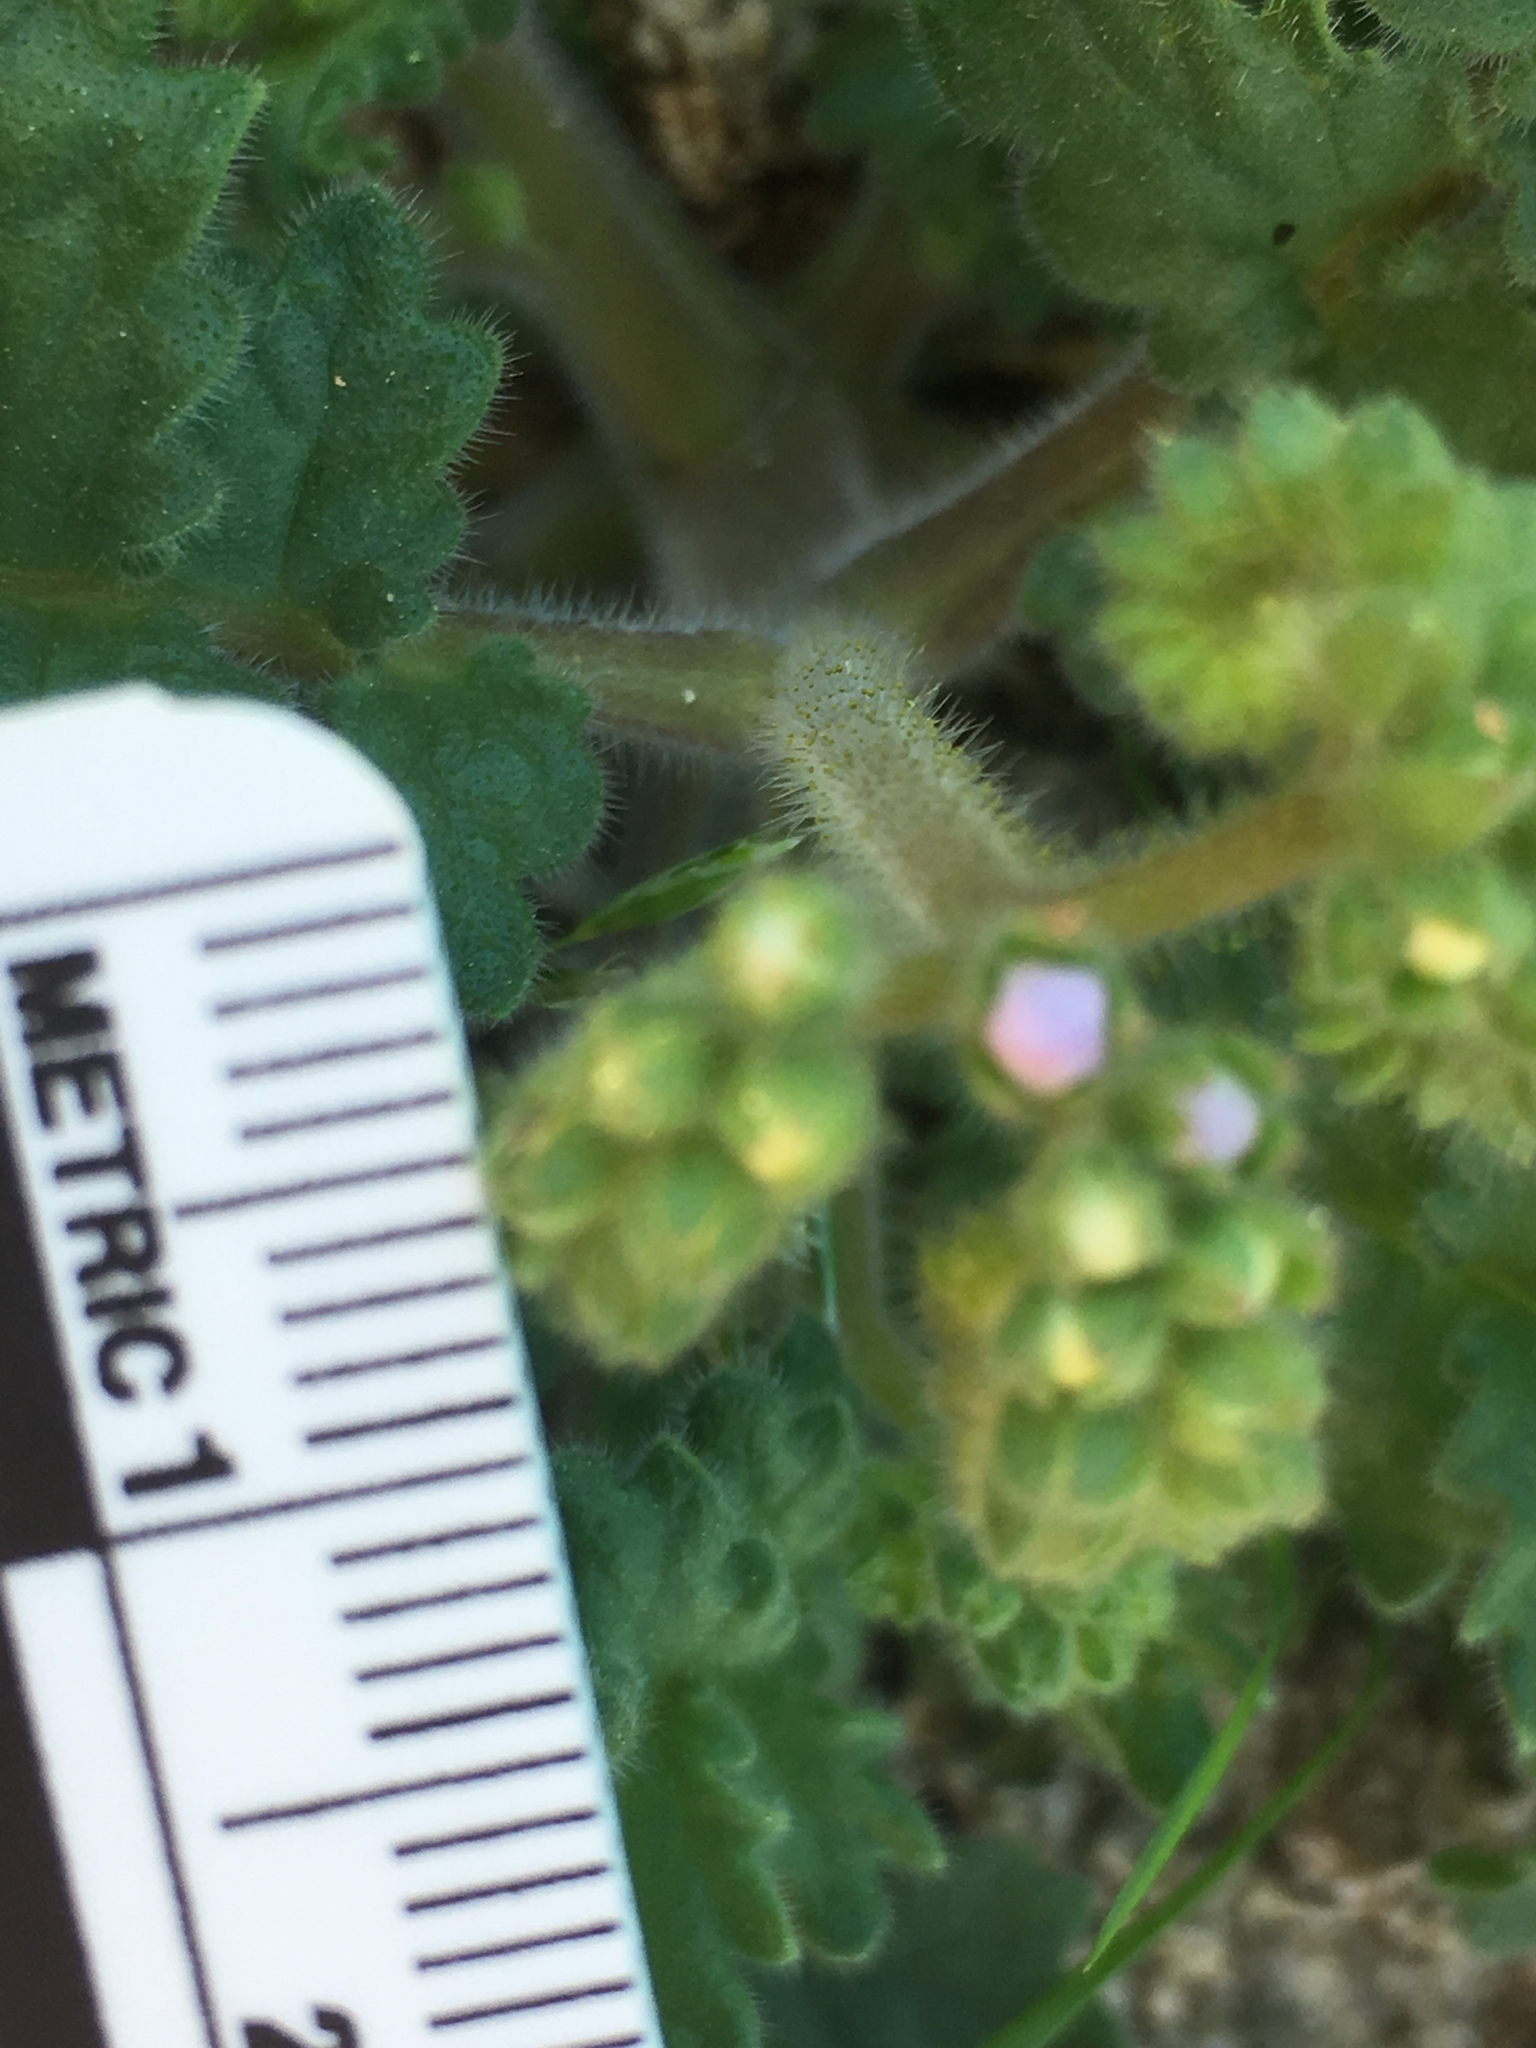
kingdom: Plantae
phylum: Tracheophyta
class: Magnoliopsida
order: Boraginales
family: Hydrophyllaceae
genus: Phacelia
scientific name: Phacelia pedicellata
